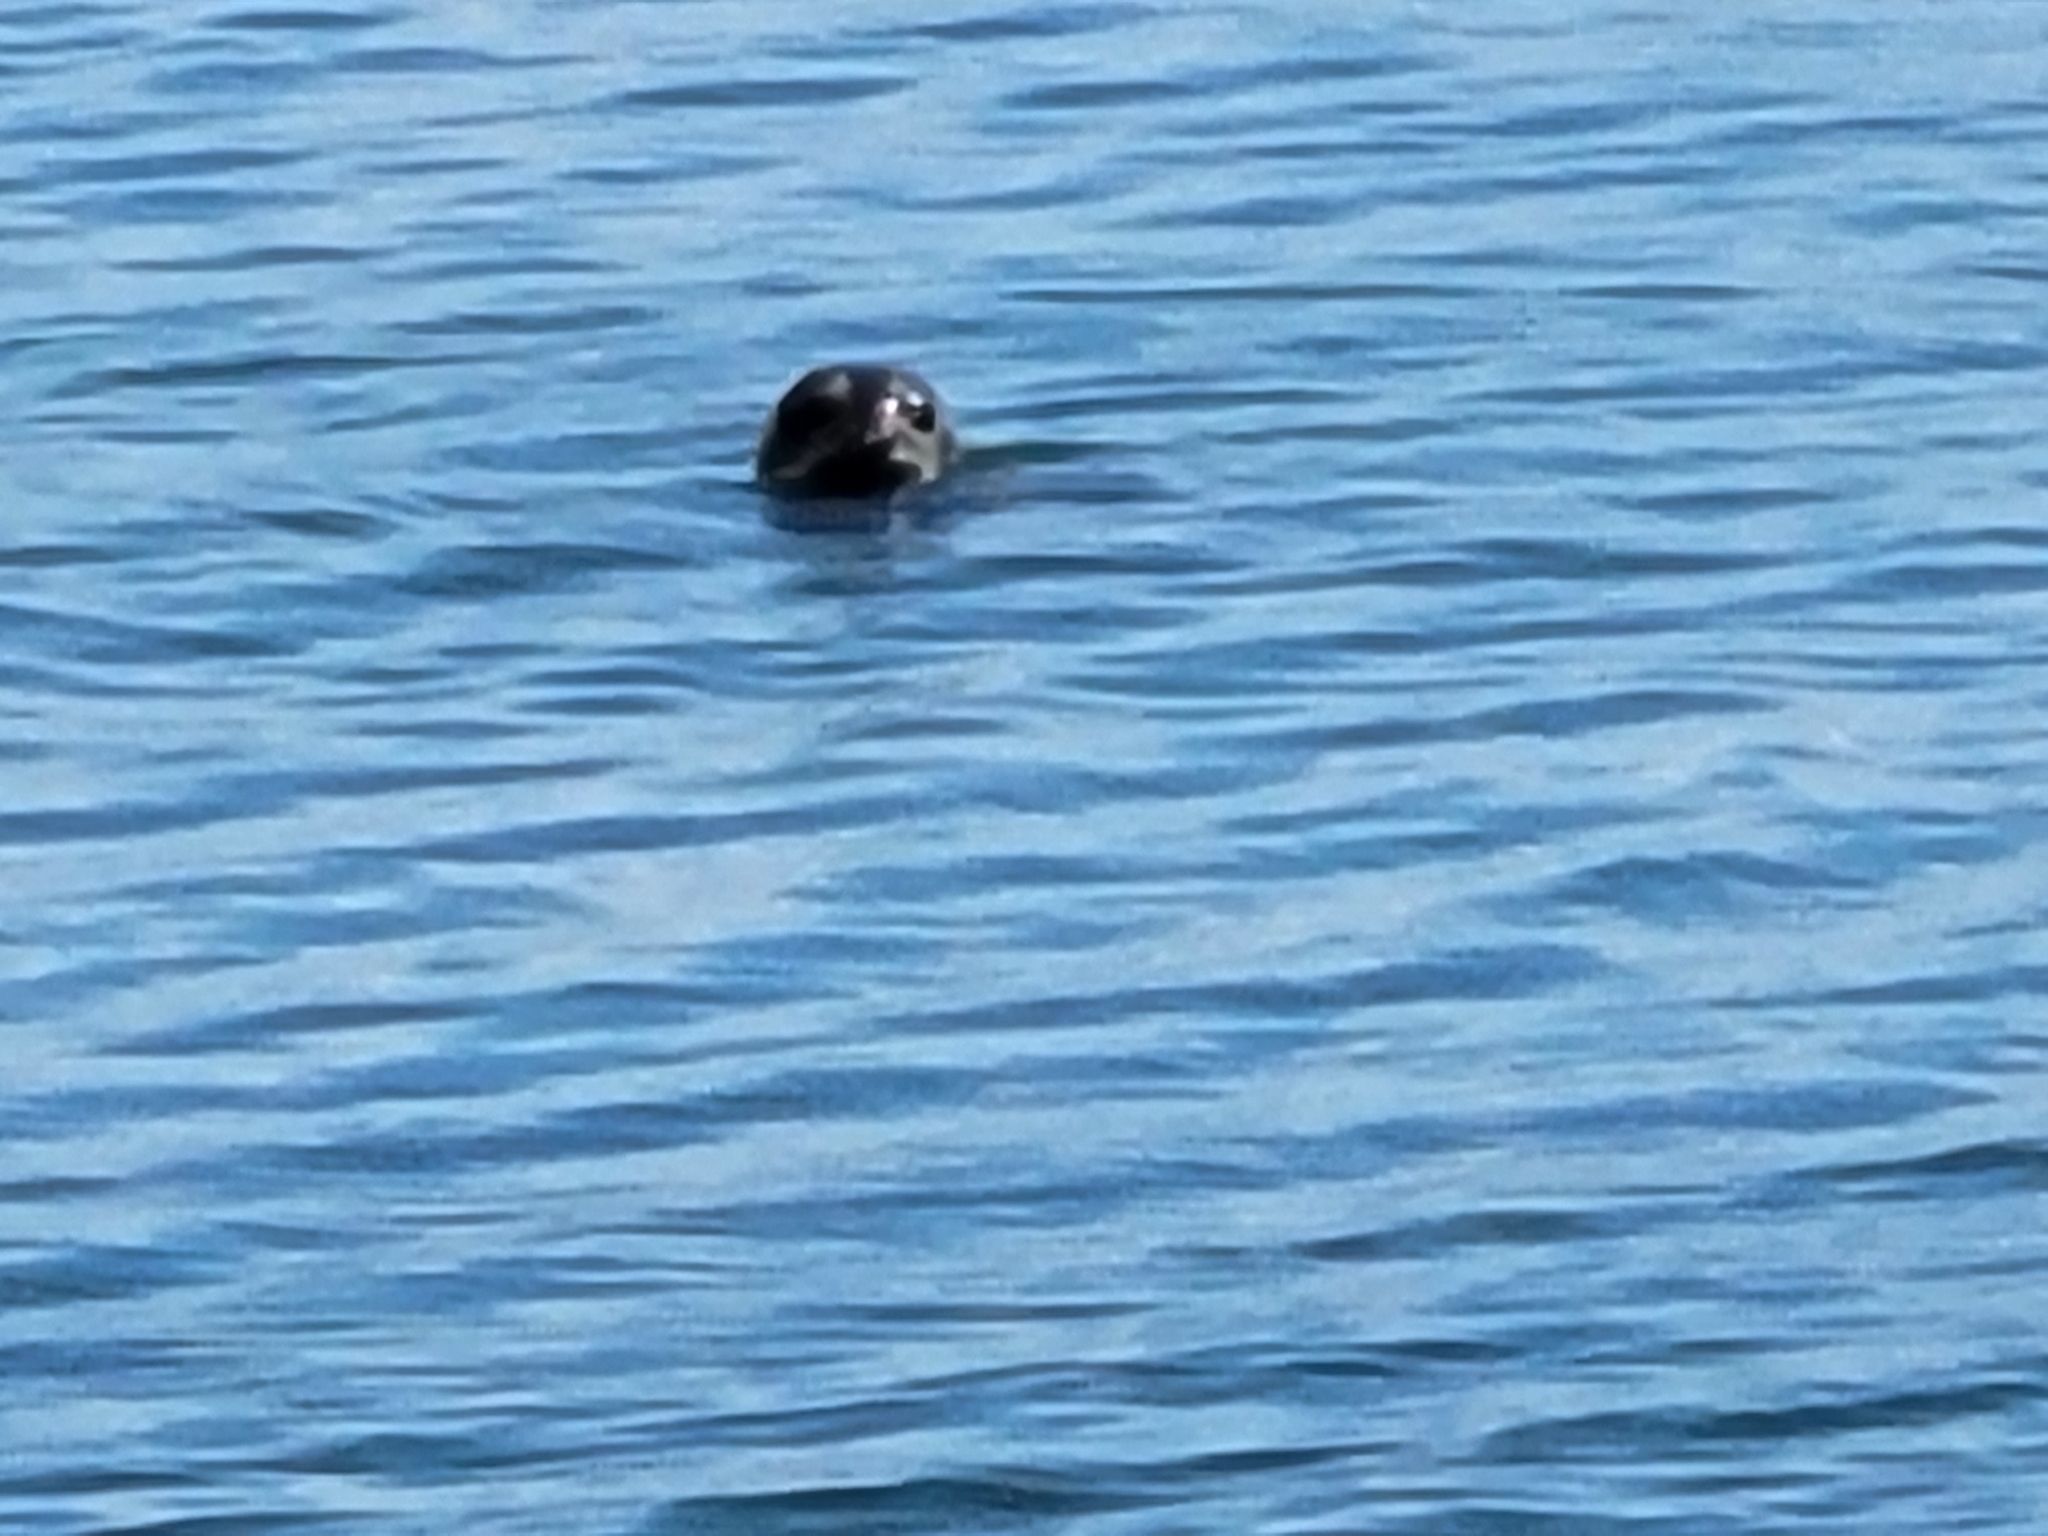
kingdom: Animalia
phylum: Chordata
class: Mammalia
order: Carnivora
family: Phocidae
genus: Phoca
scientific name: Phoca vitulina
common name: Harbor seal
